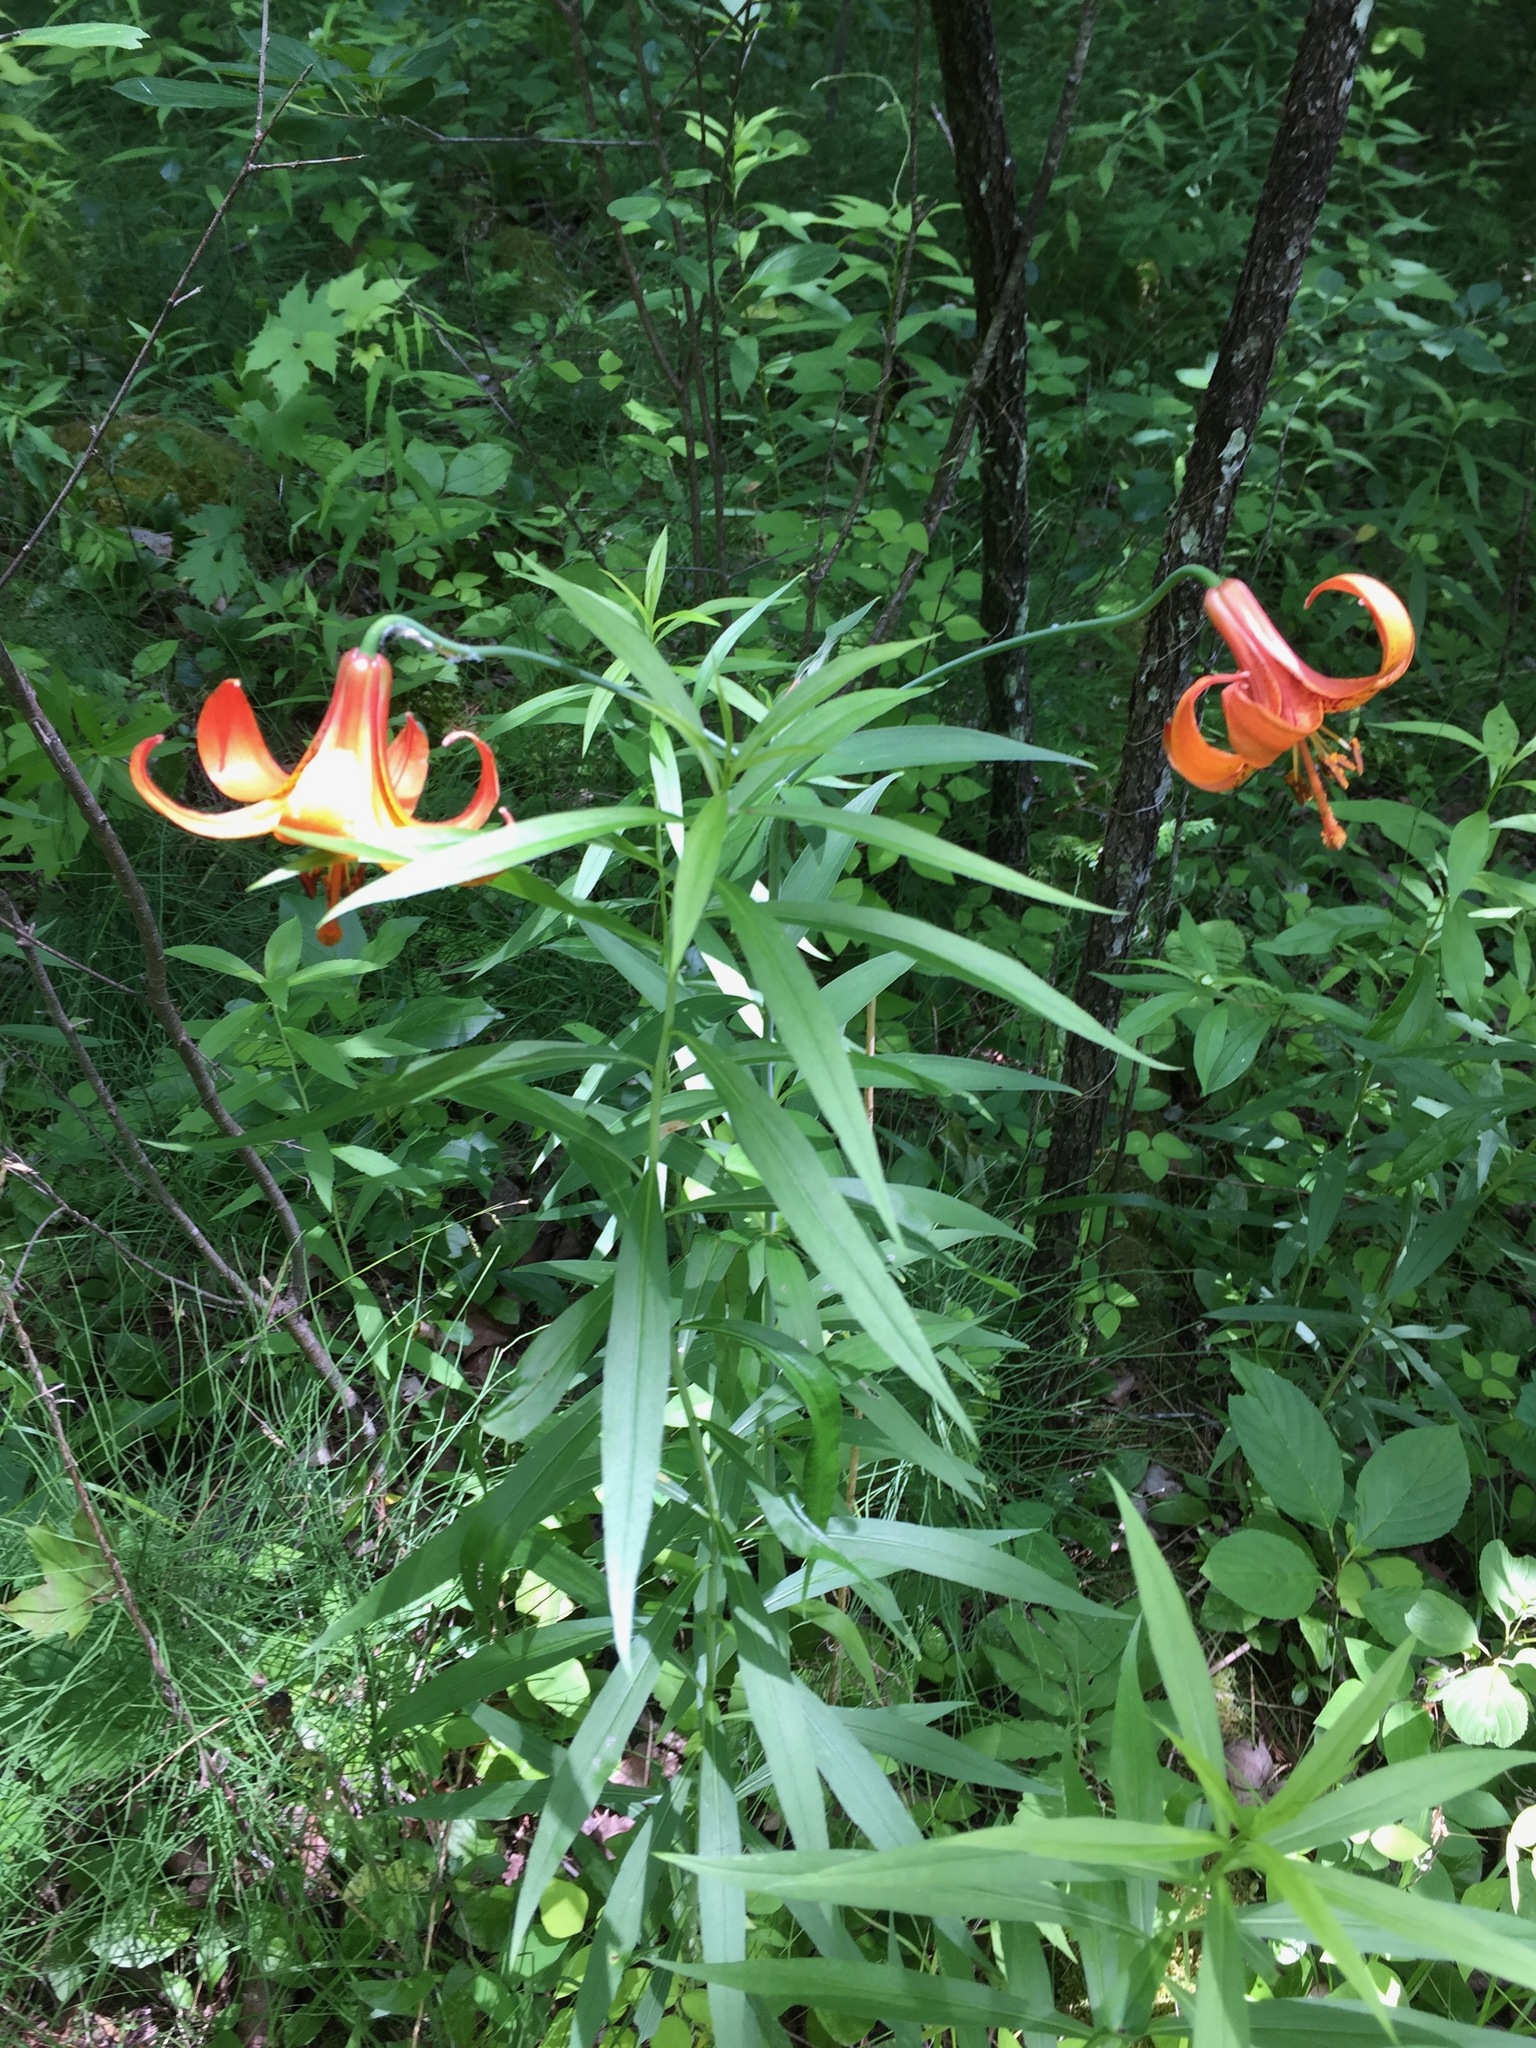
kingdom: Plantae
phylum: Tracheophyta
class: Liliopsida
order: Liliales
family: Liliaceae
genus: Lilium
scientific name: Lilium canadense
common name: Canada lily
